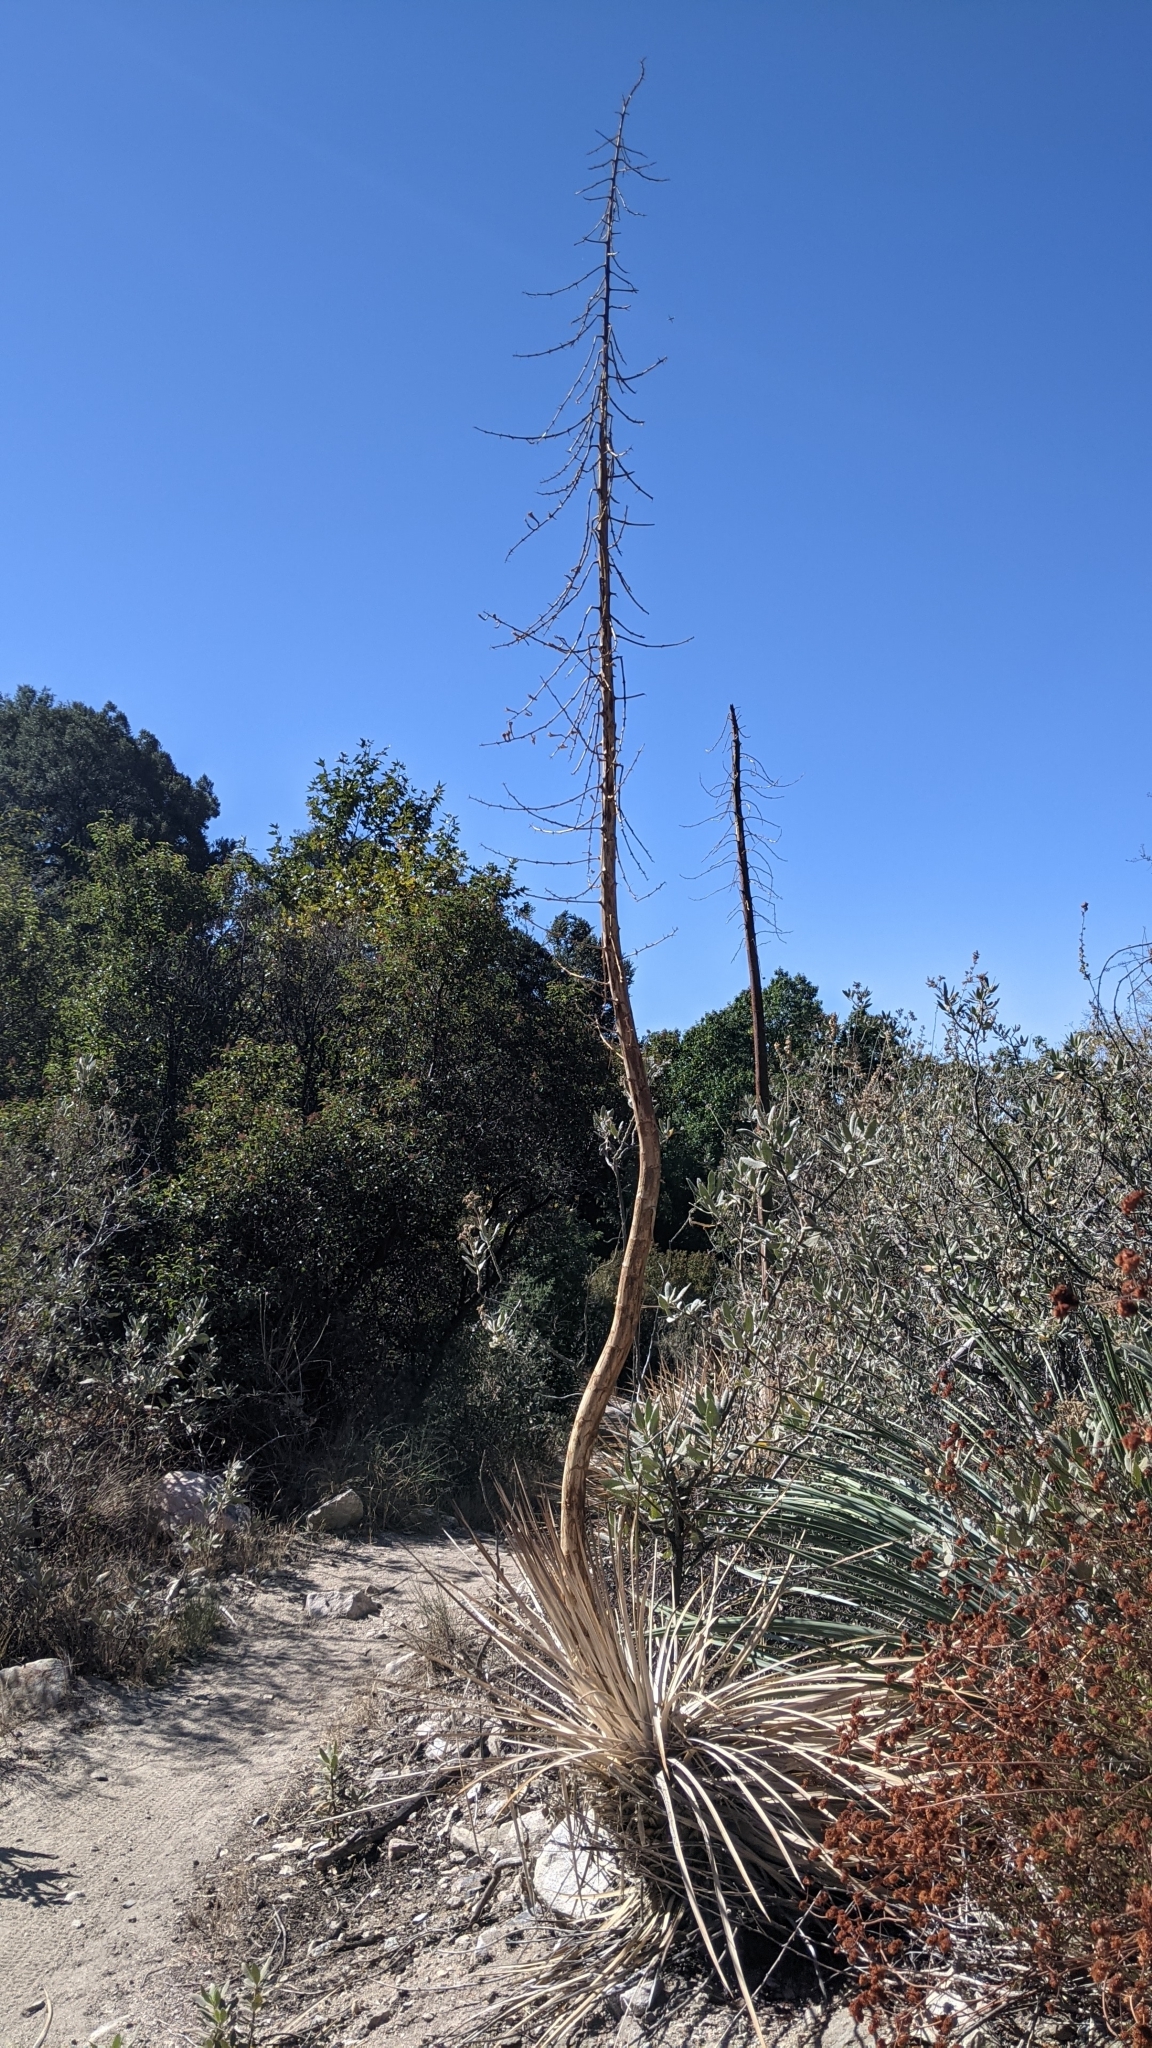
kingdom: Plantae
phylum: Tracheophyta
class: Liliopsida
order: Asparagales
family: Asparagaceae
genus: Hesperoyucca
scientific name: Hesperoyucca whipplei
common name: Our lord's-candle
